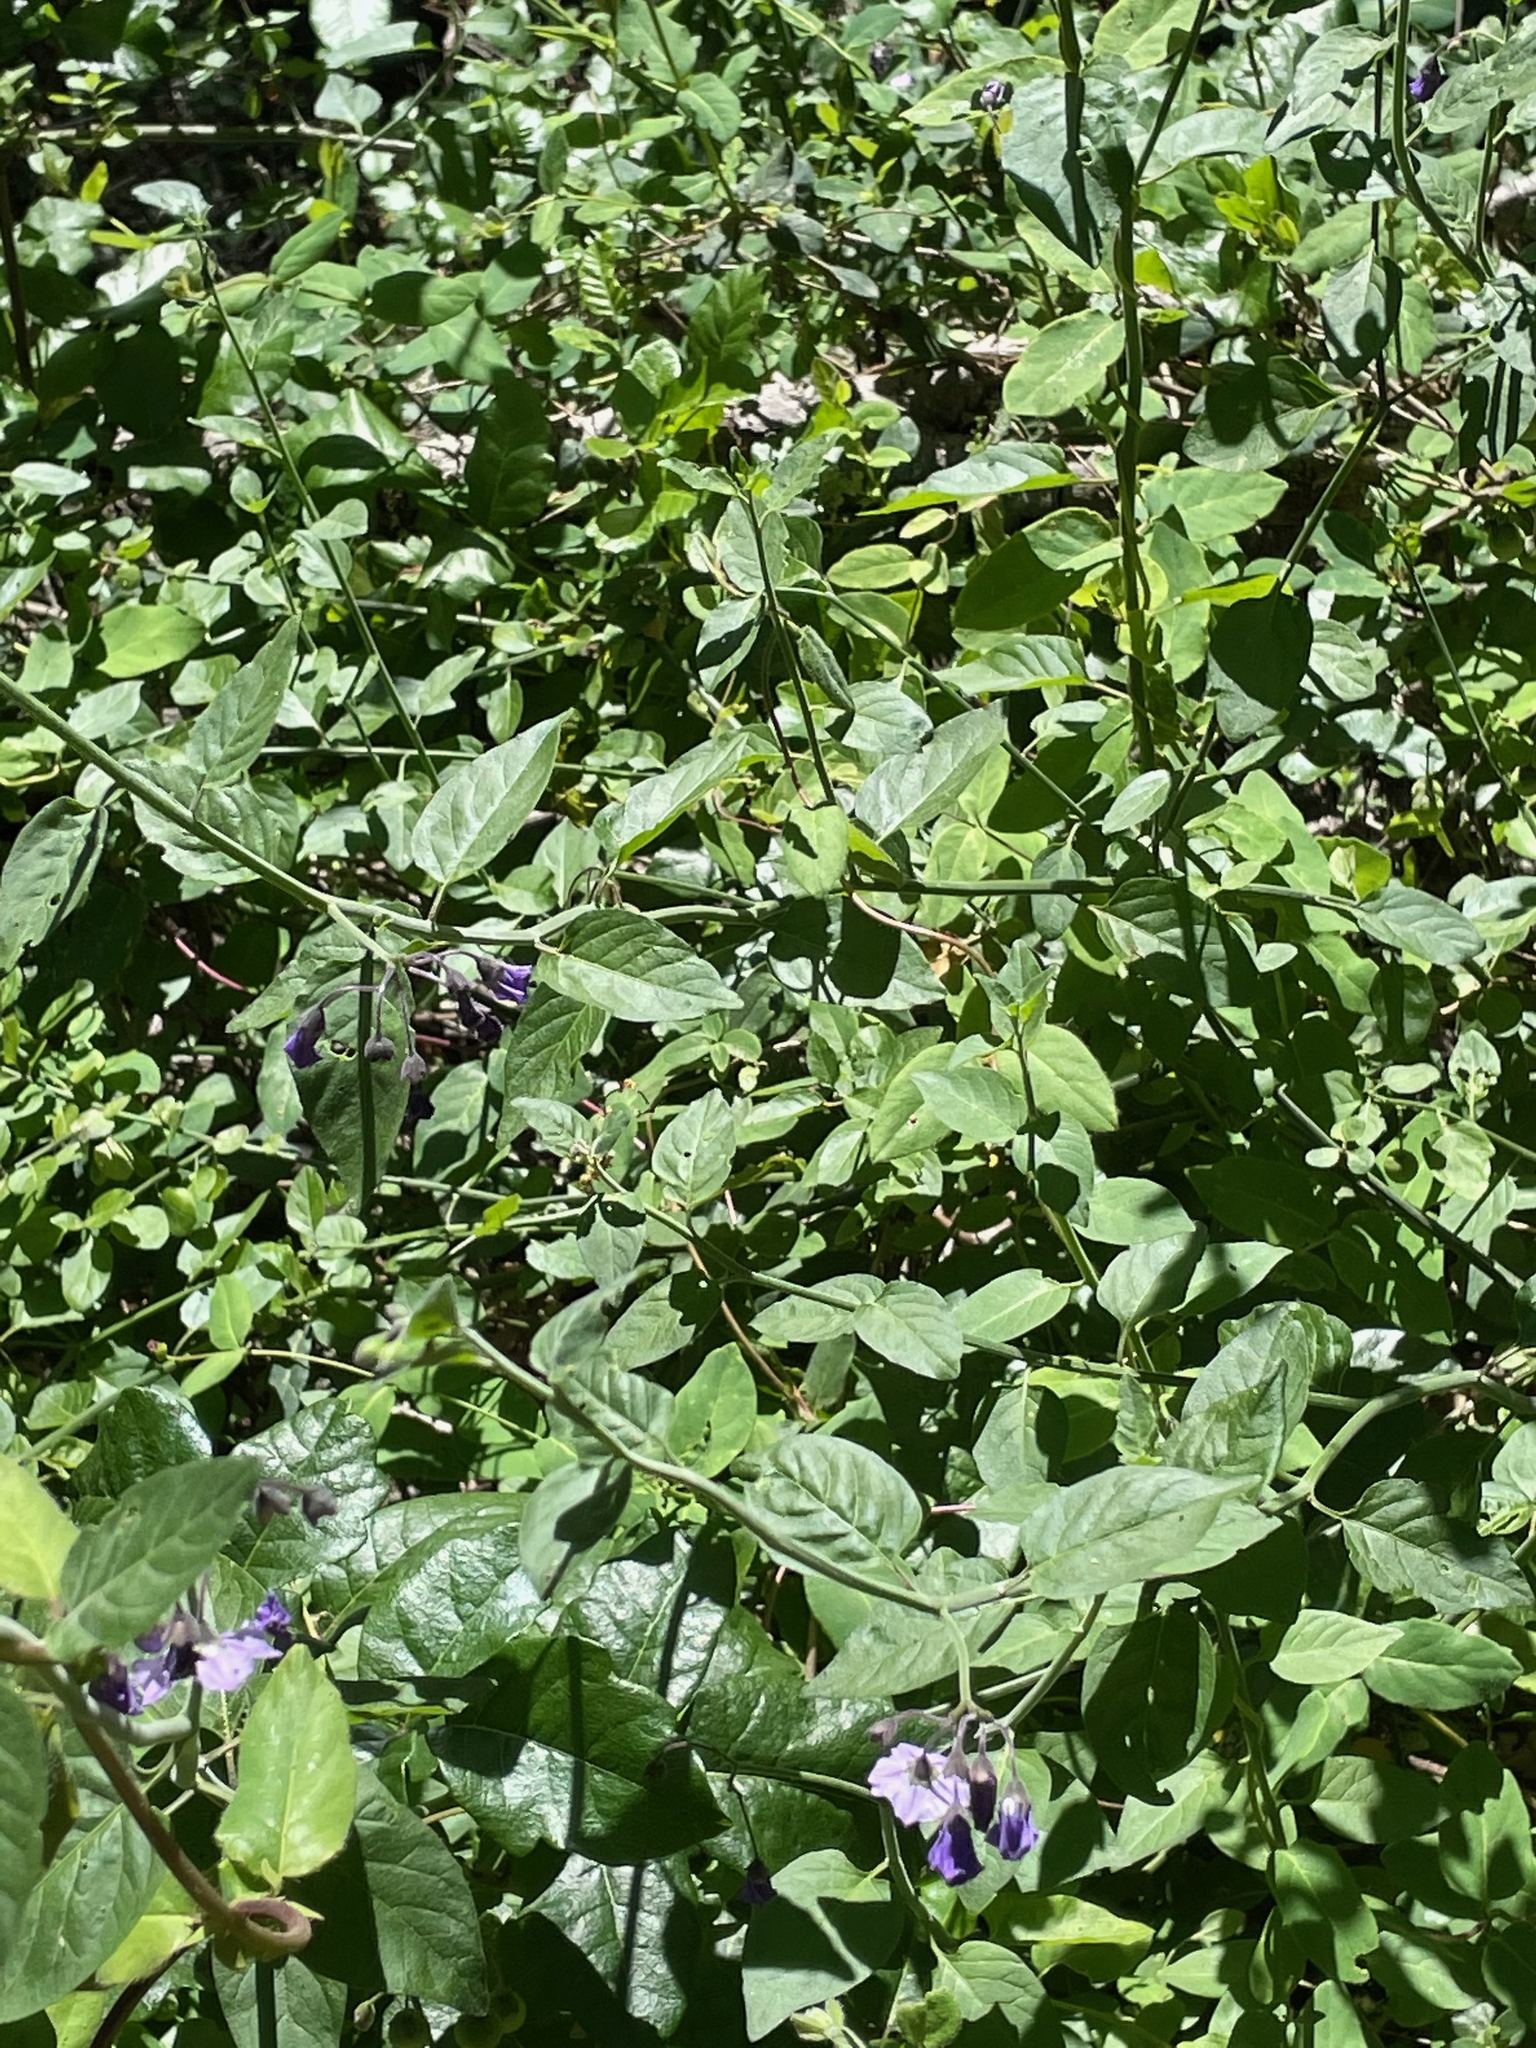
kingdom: Plantae
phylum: Tracheophyta
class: Magnoliopsida
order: Solanales
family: Solanaceae
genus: Solanum
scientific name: Solanum umbelliferum
